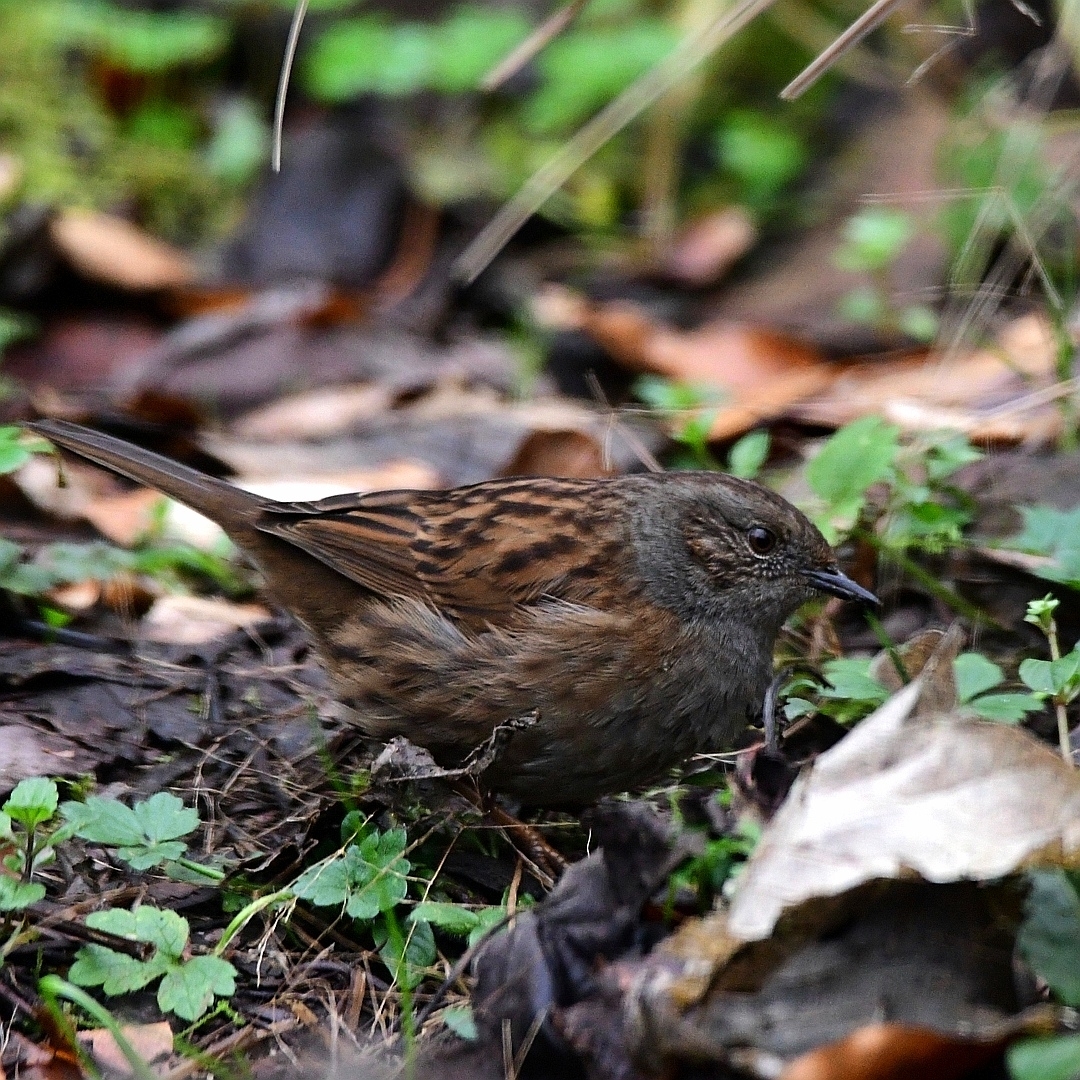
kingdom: Animalia
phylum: Chordata
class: Aves
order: Passeriformes
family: Prunellidae
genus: Prunella
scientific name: Prunella modularis
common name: Dunnock
